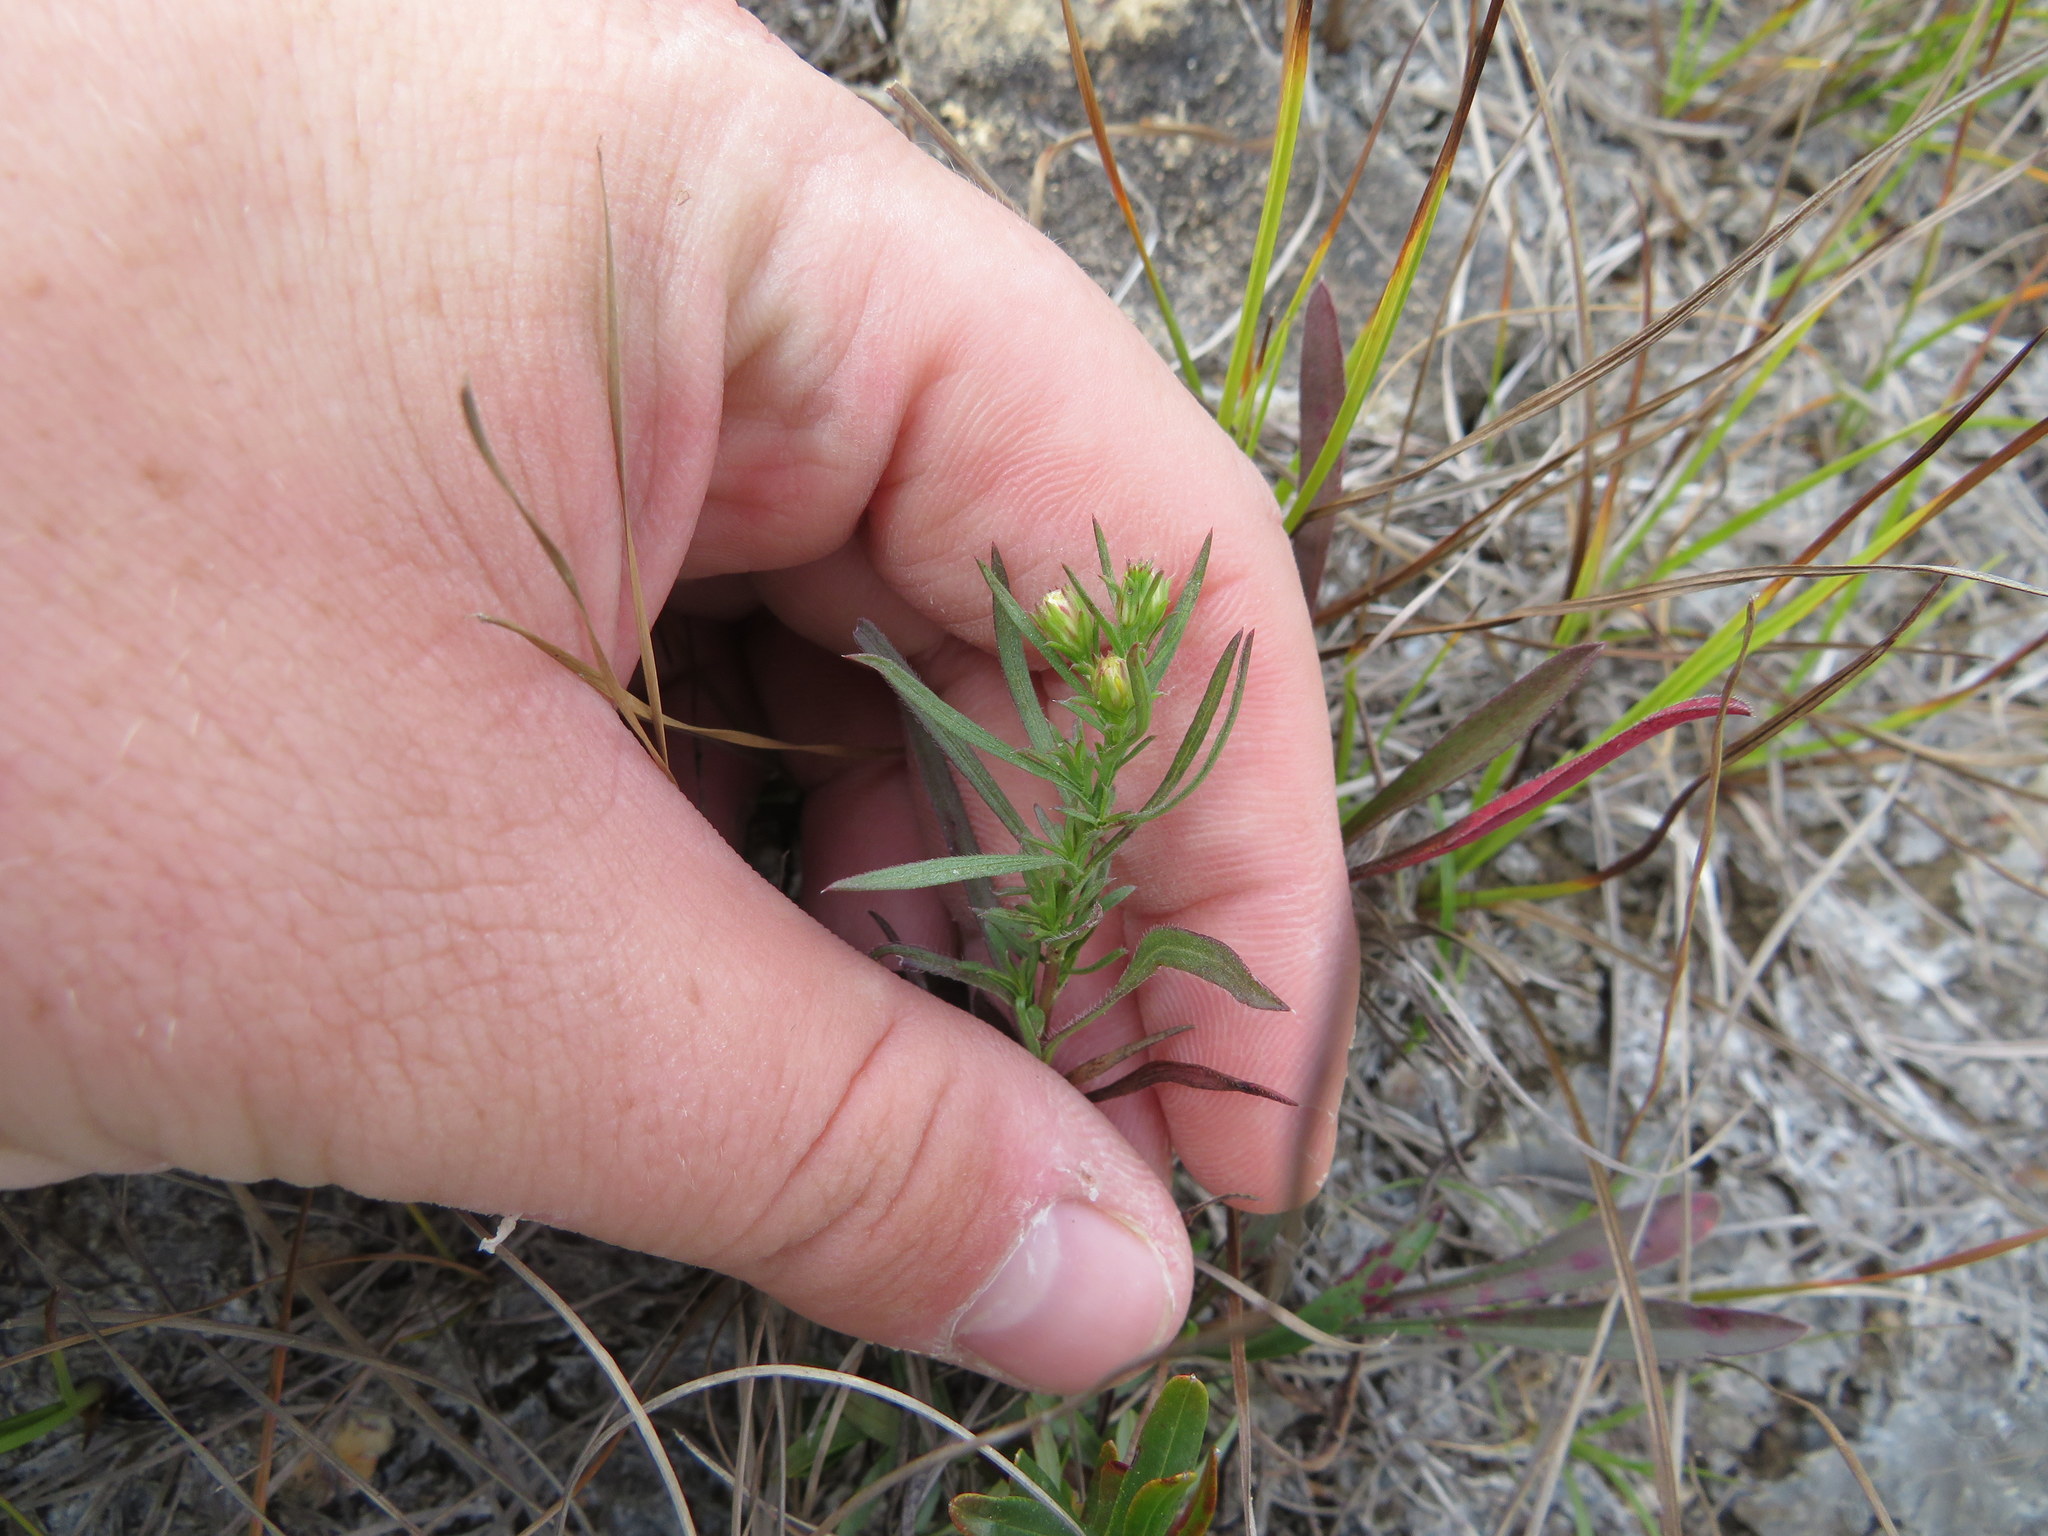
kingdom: Plantae
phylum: Tracheophyta
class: Magnoliopsida
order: Asterales
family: Asteraceae
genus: Symphyotrichum
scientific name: Symphyotrichum parviceps
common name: Small white aster
